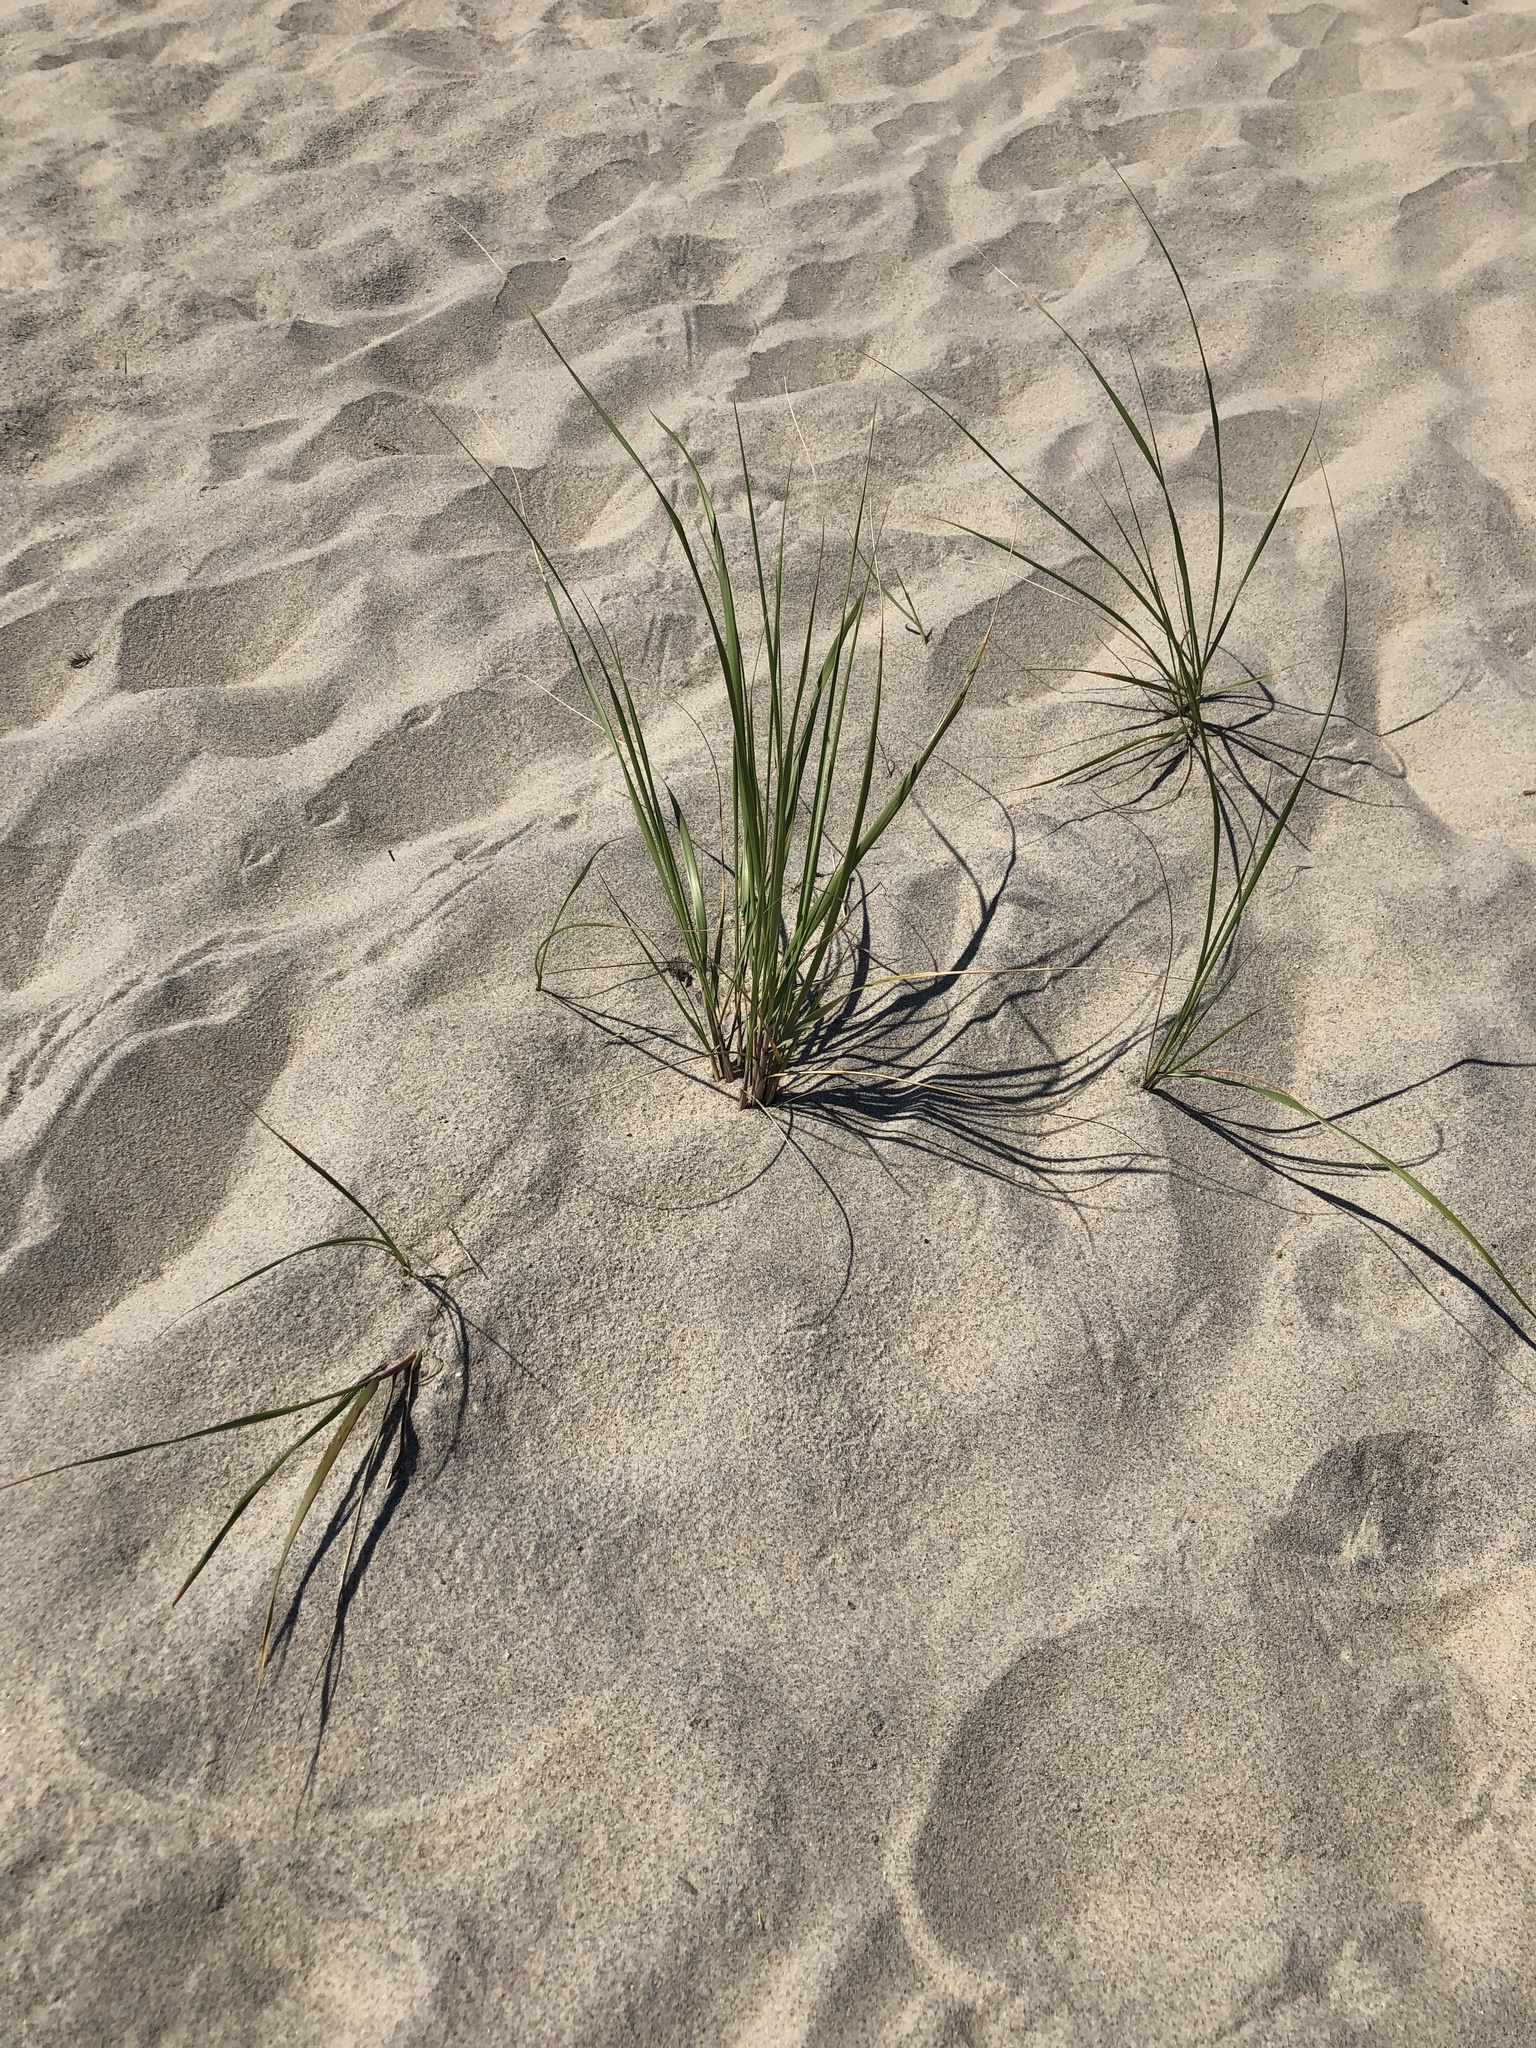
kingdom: Plantae
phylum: Tracheophyta
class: Liliopsida
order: Poales
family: Poaceae
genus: Calamagrostis
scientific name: Calamagrostis breviligulata
